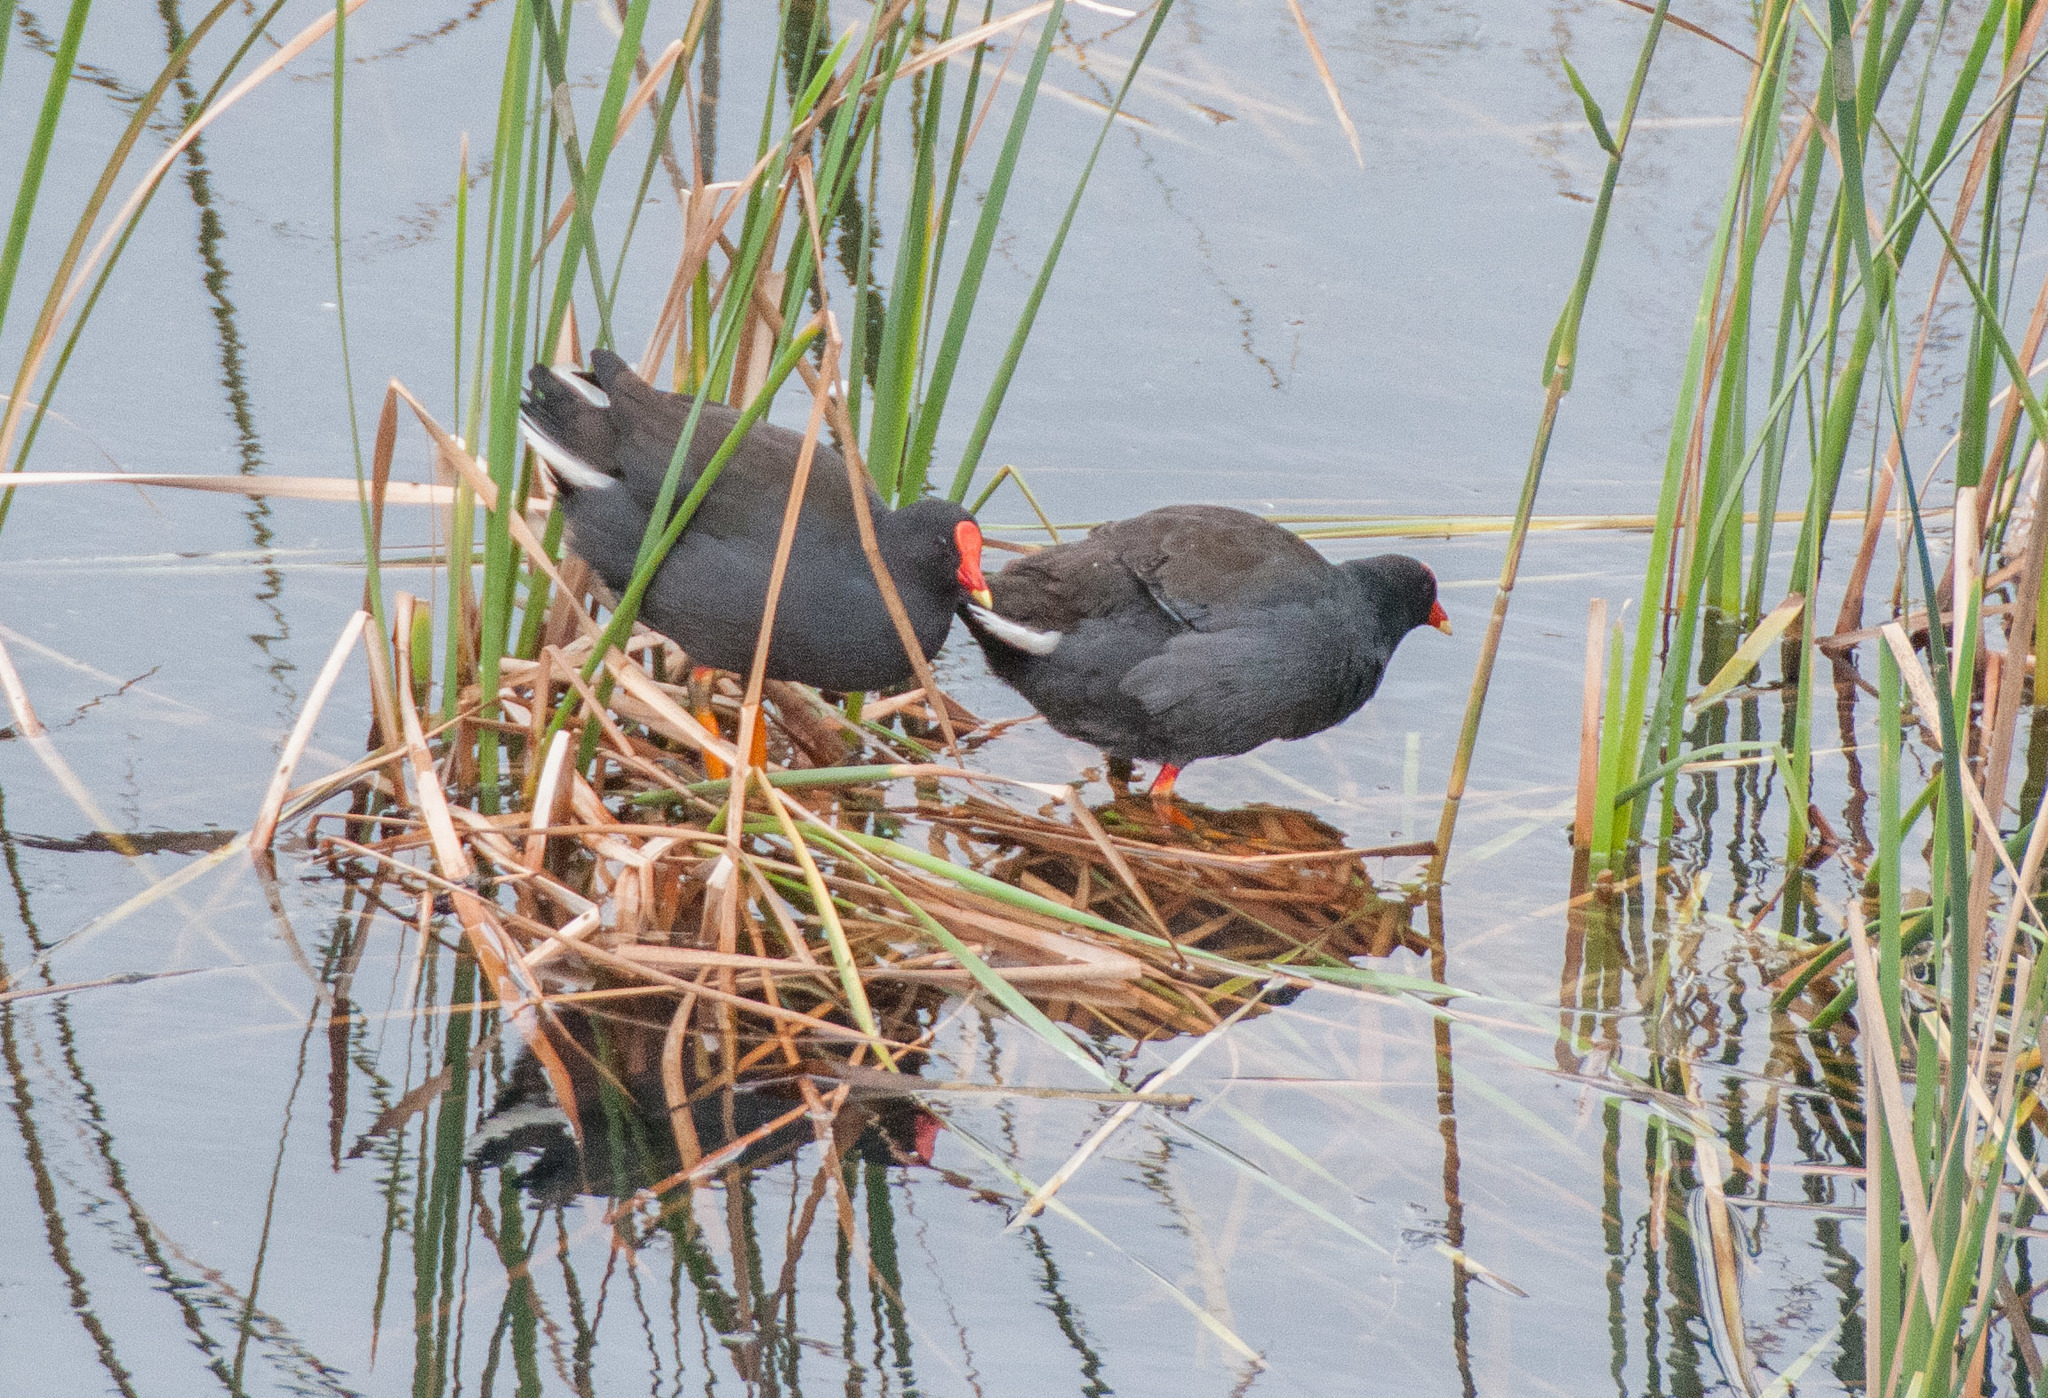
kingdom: Animalia
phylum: Chordata
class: Aves
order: Gruiformes
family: Rallidae
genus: Gallinula
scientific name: Gallinula tenebrosa
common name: Dusky moorhen
